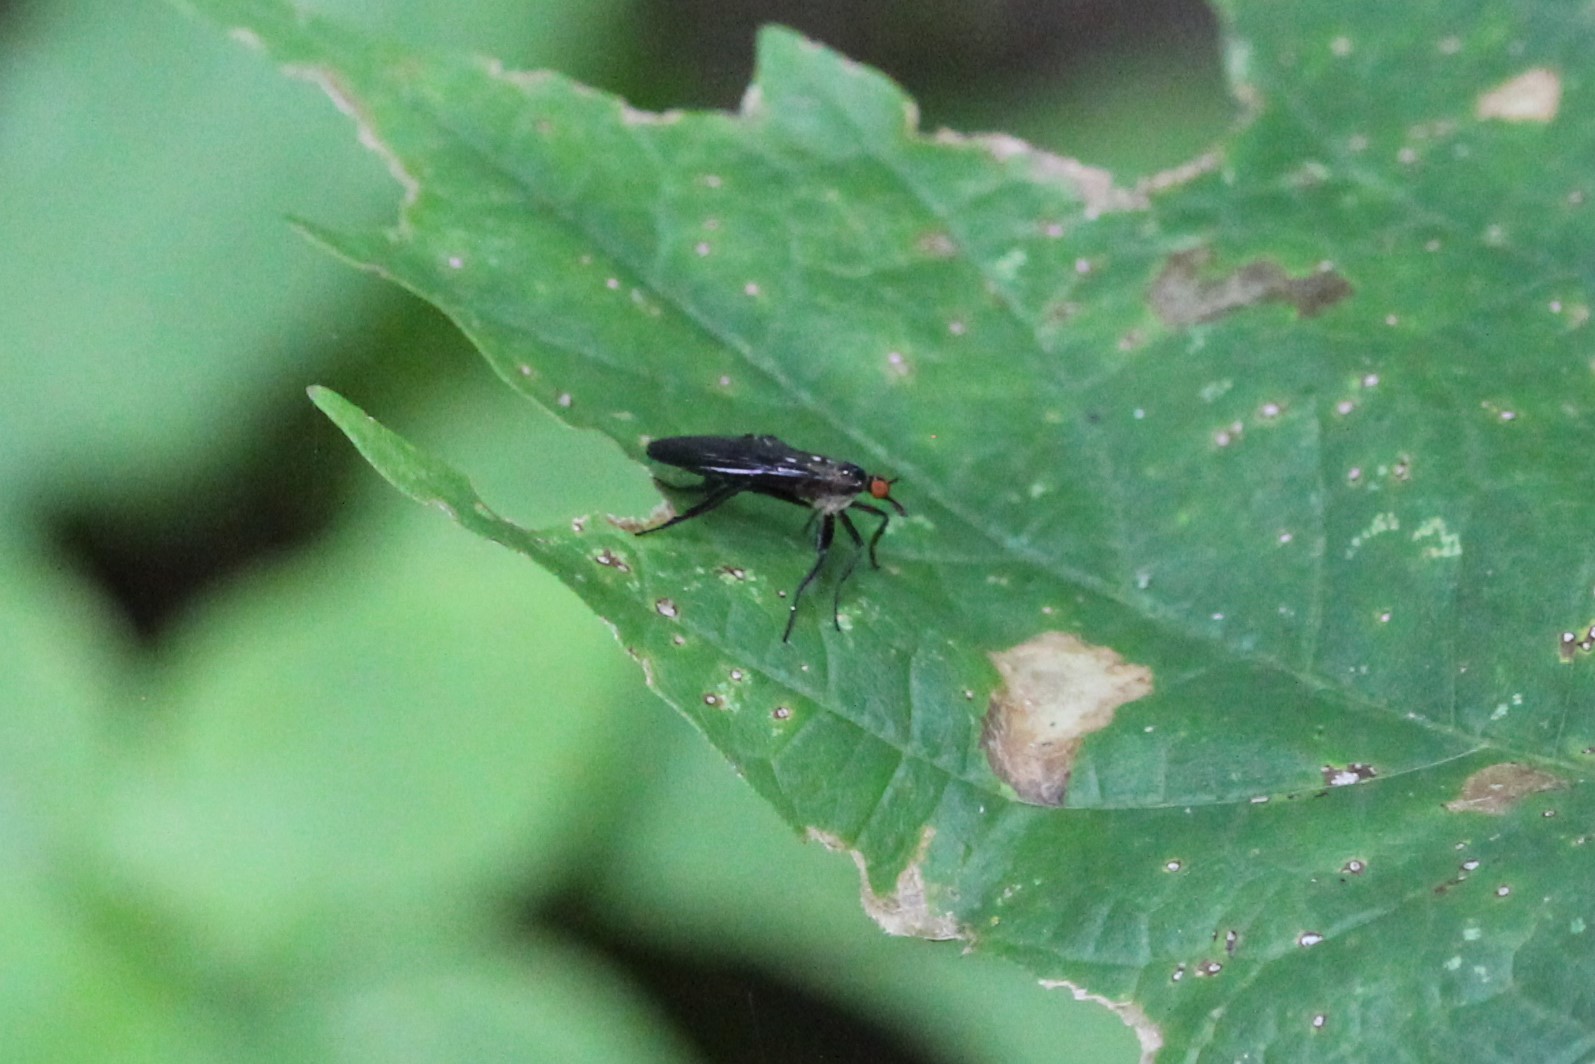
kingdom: Animalia
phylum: Arthropoda
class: Insecta
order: Diptera
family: Empididae
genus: Rhamphomyia
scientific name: Rhamphomyia longicauda
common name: Long-tailed dance fly
